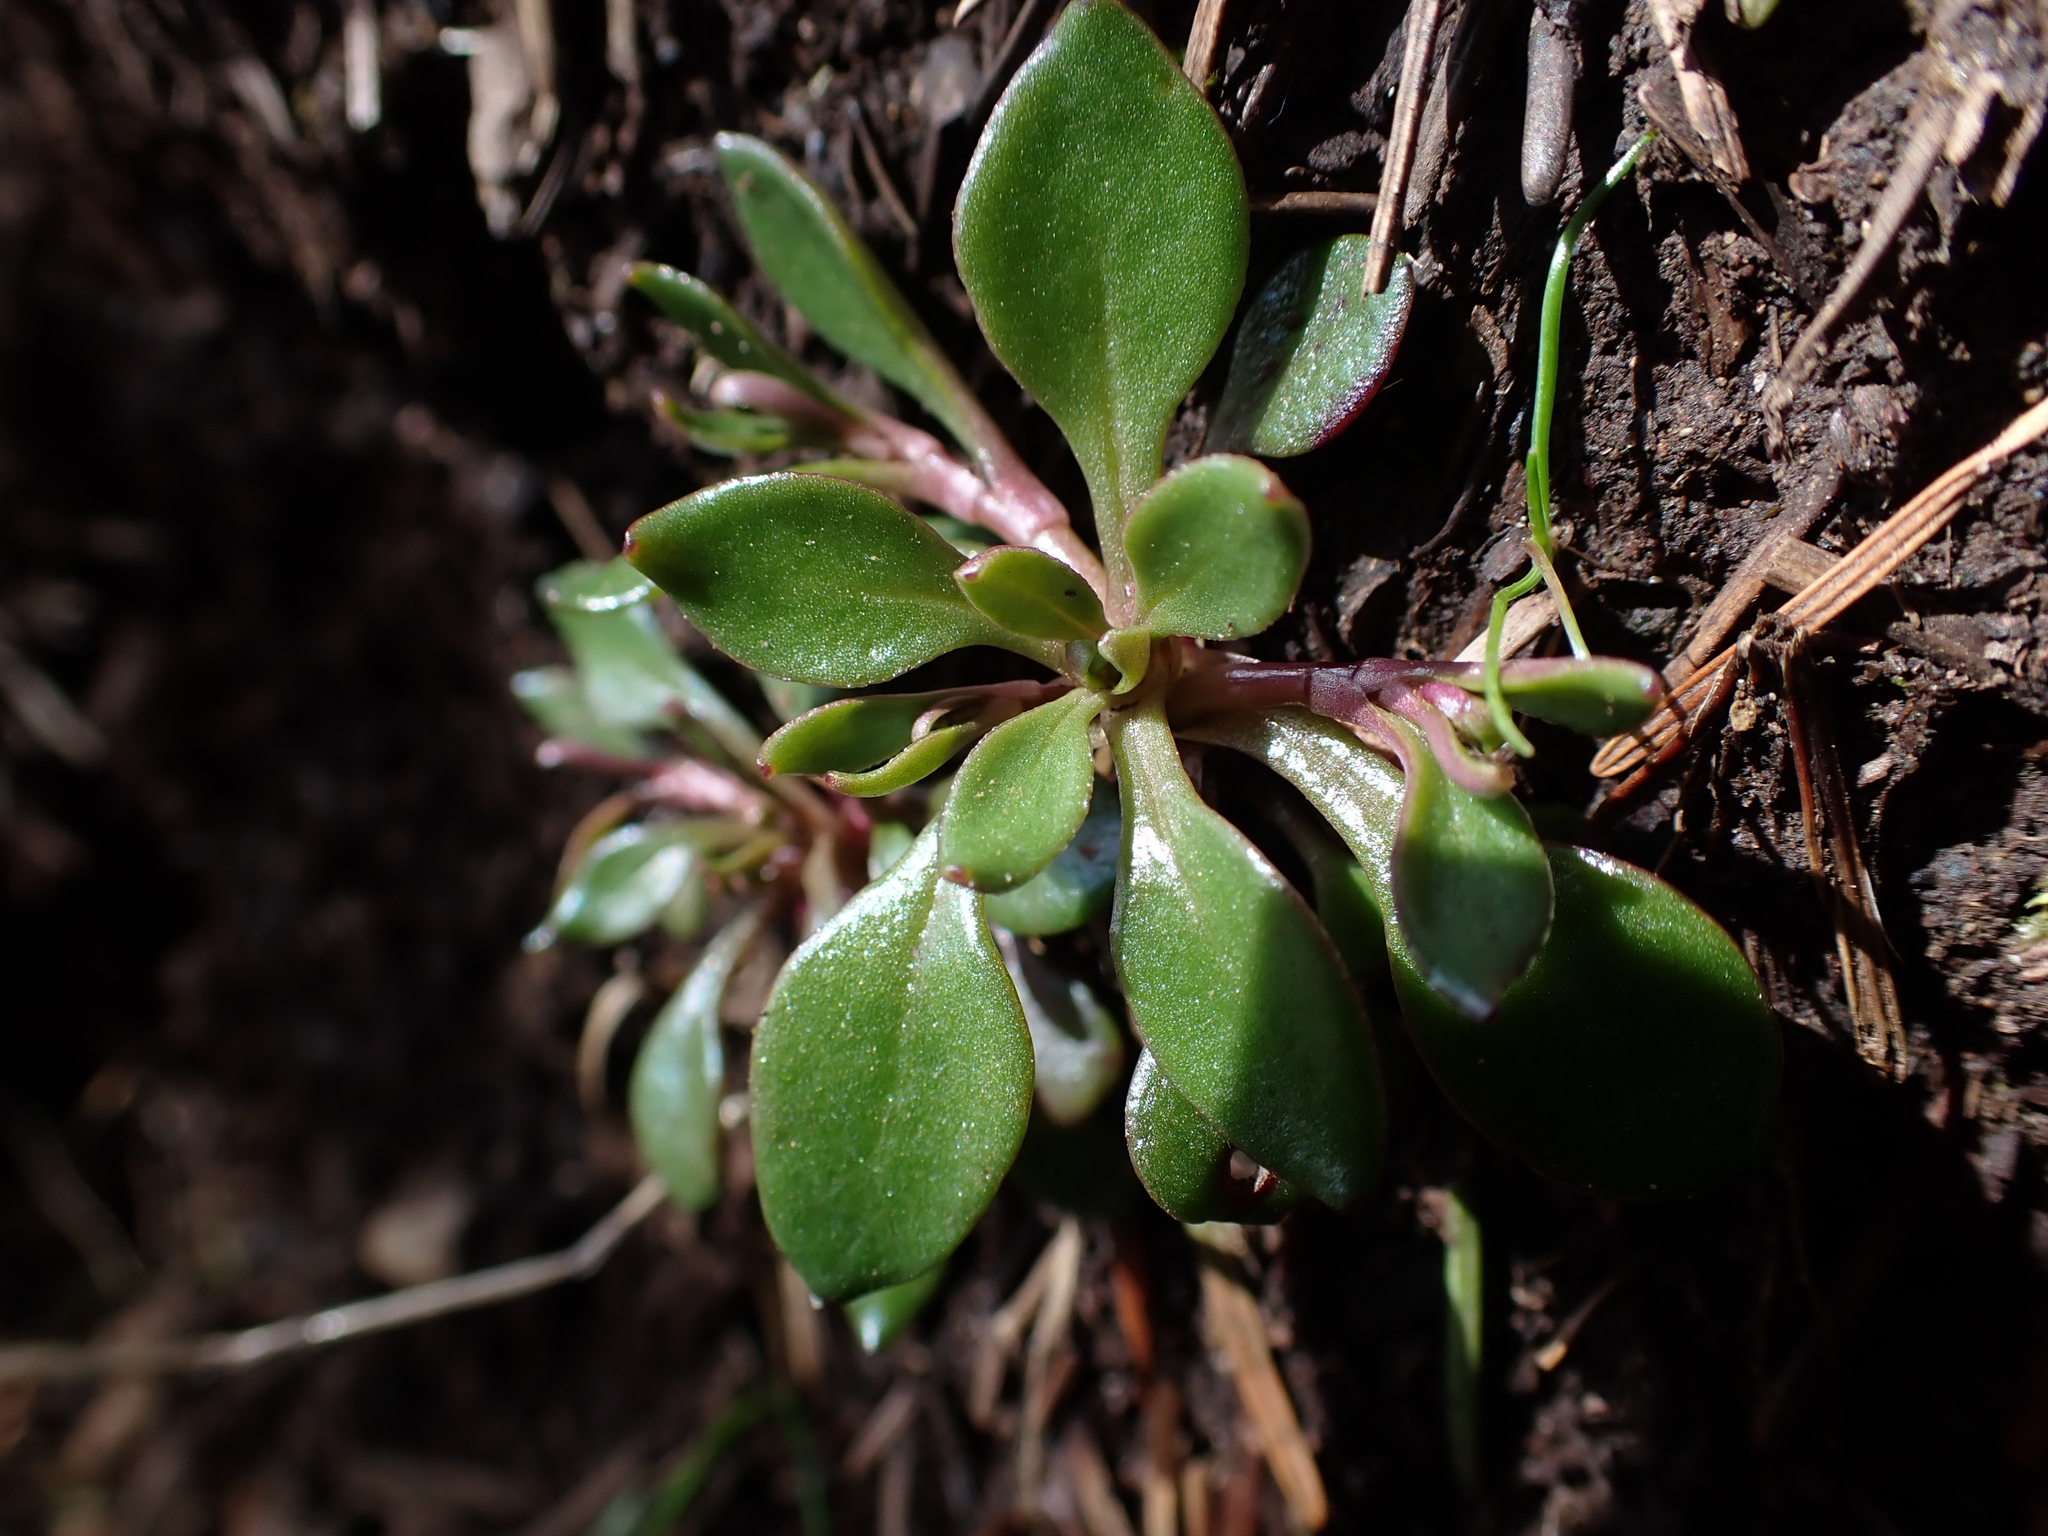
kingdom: Plantae
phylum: Tracheophyta
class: Magnoliopsida
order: Caryophyllales
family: Montiaceae
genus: Montia
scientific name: Montia parvifolia
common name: Small-leaved blinks
